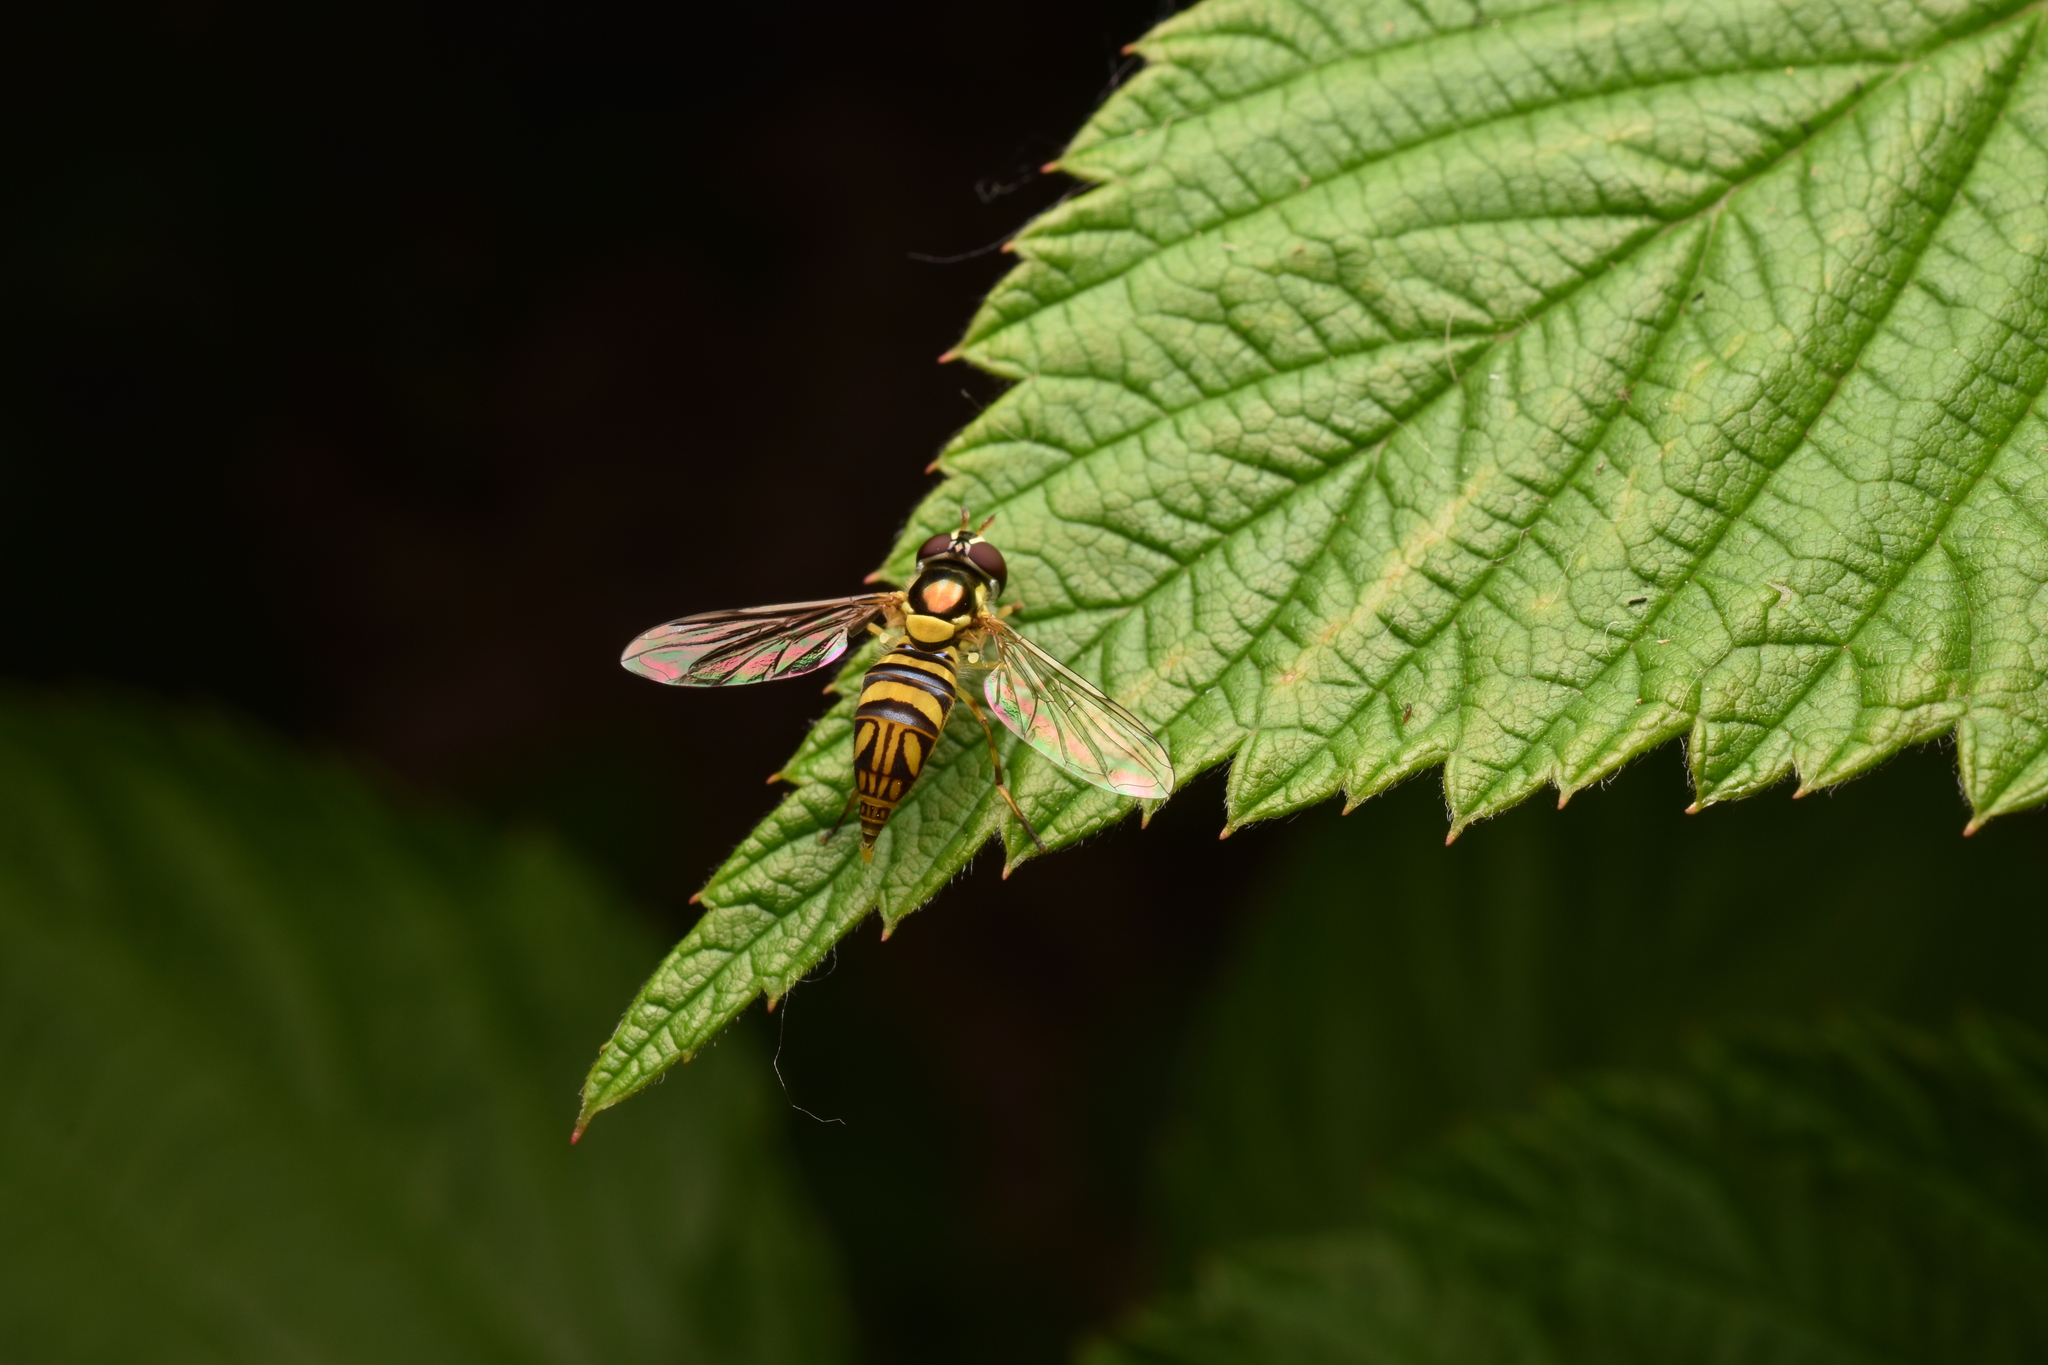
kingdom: Animalia
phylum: Arthropoda
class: Insecta
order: Diptera
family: Syrphidae
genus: Allograpta
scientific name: Allograpta obliqua
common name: Common oblique syrphid
